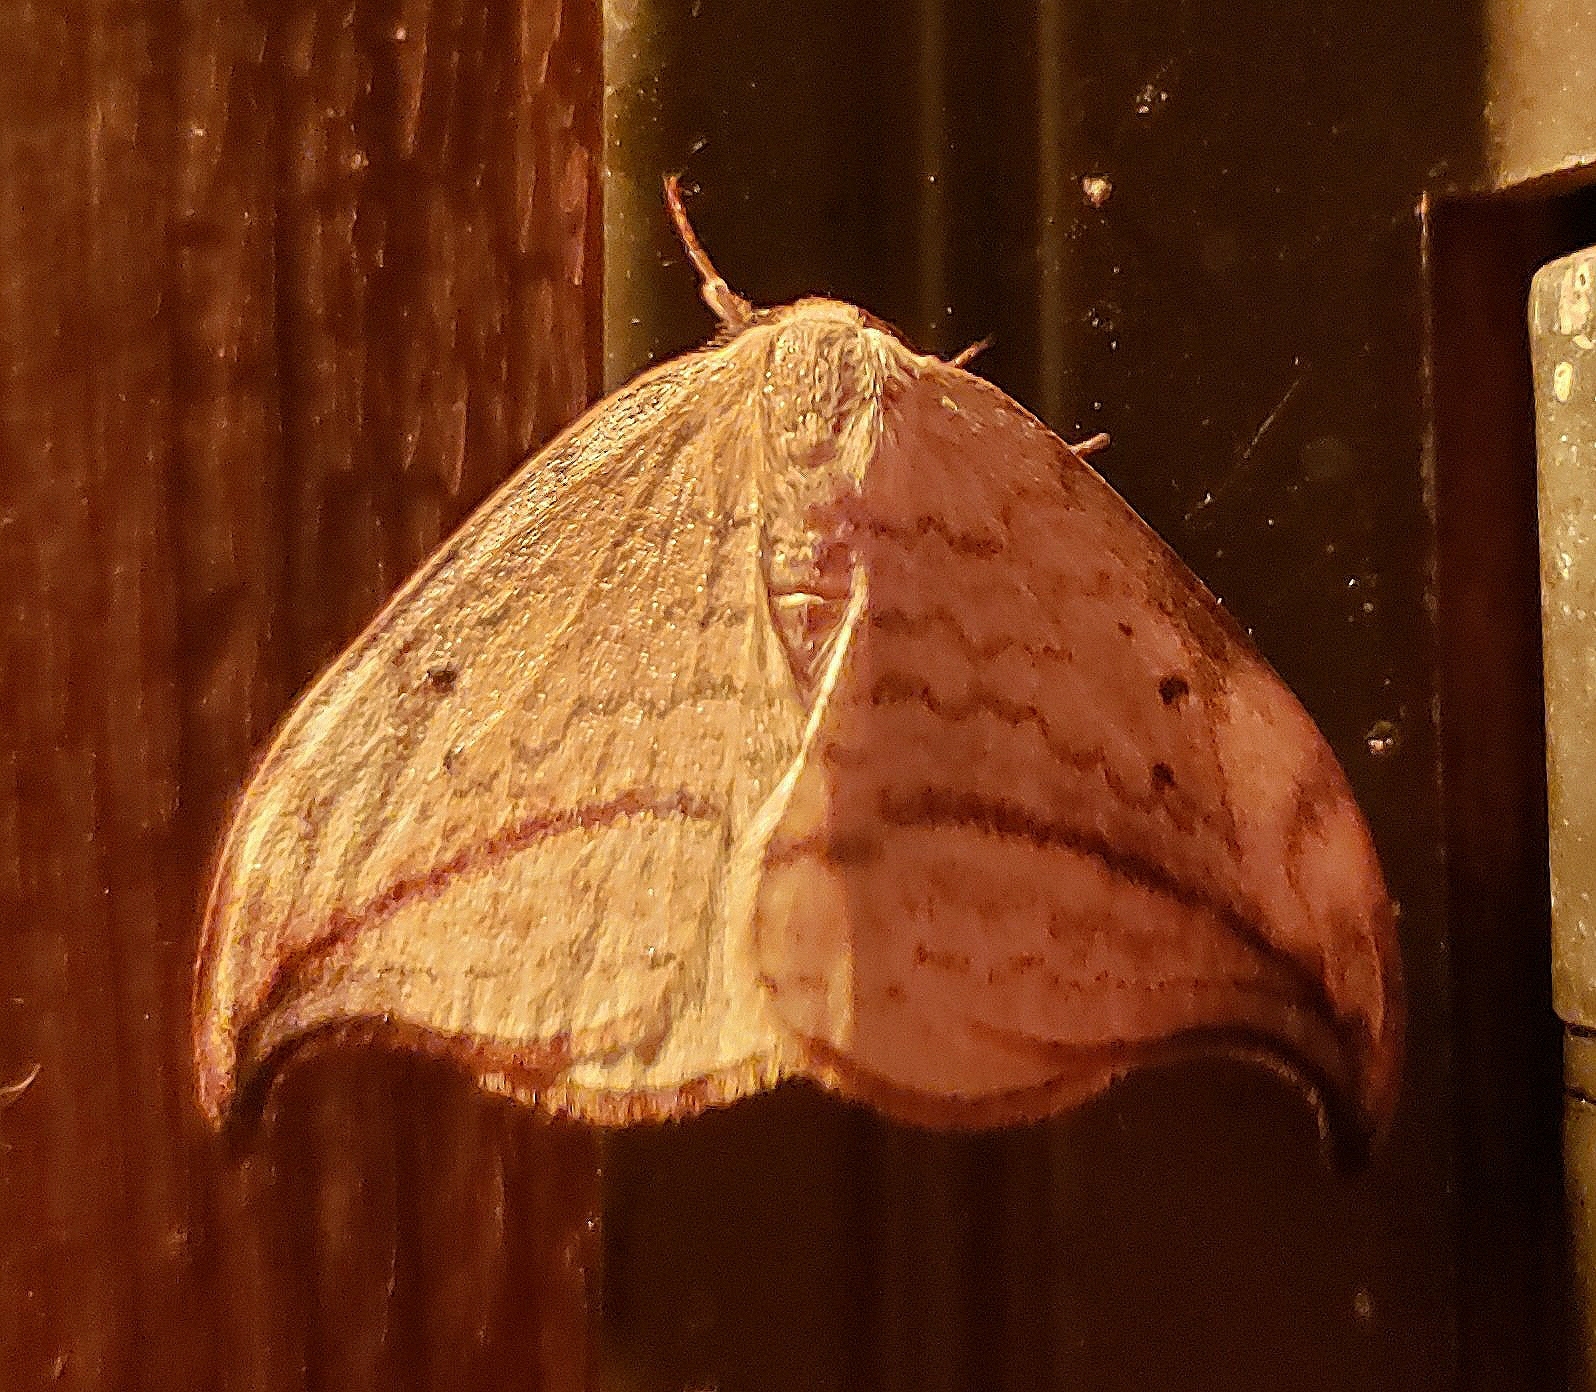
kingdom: Animalia
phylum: Arthropoda
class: Insecta
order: Lepidoptera
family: Drepanidae
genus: Drepana
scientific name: Drepana arcuata
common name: Arched hooktip moth
